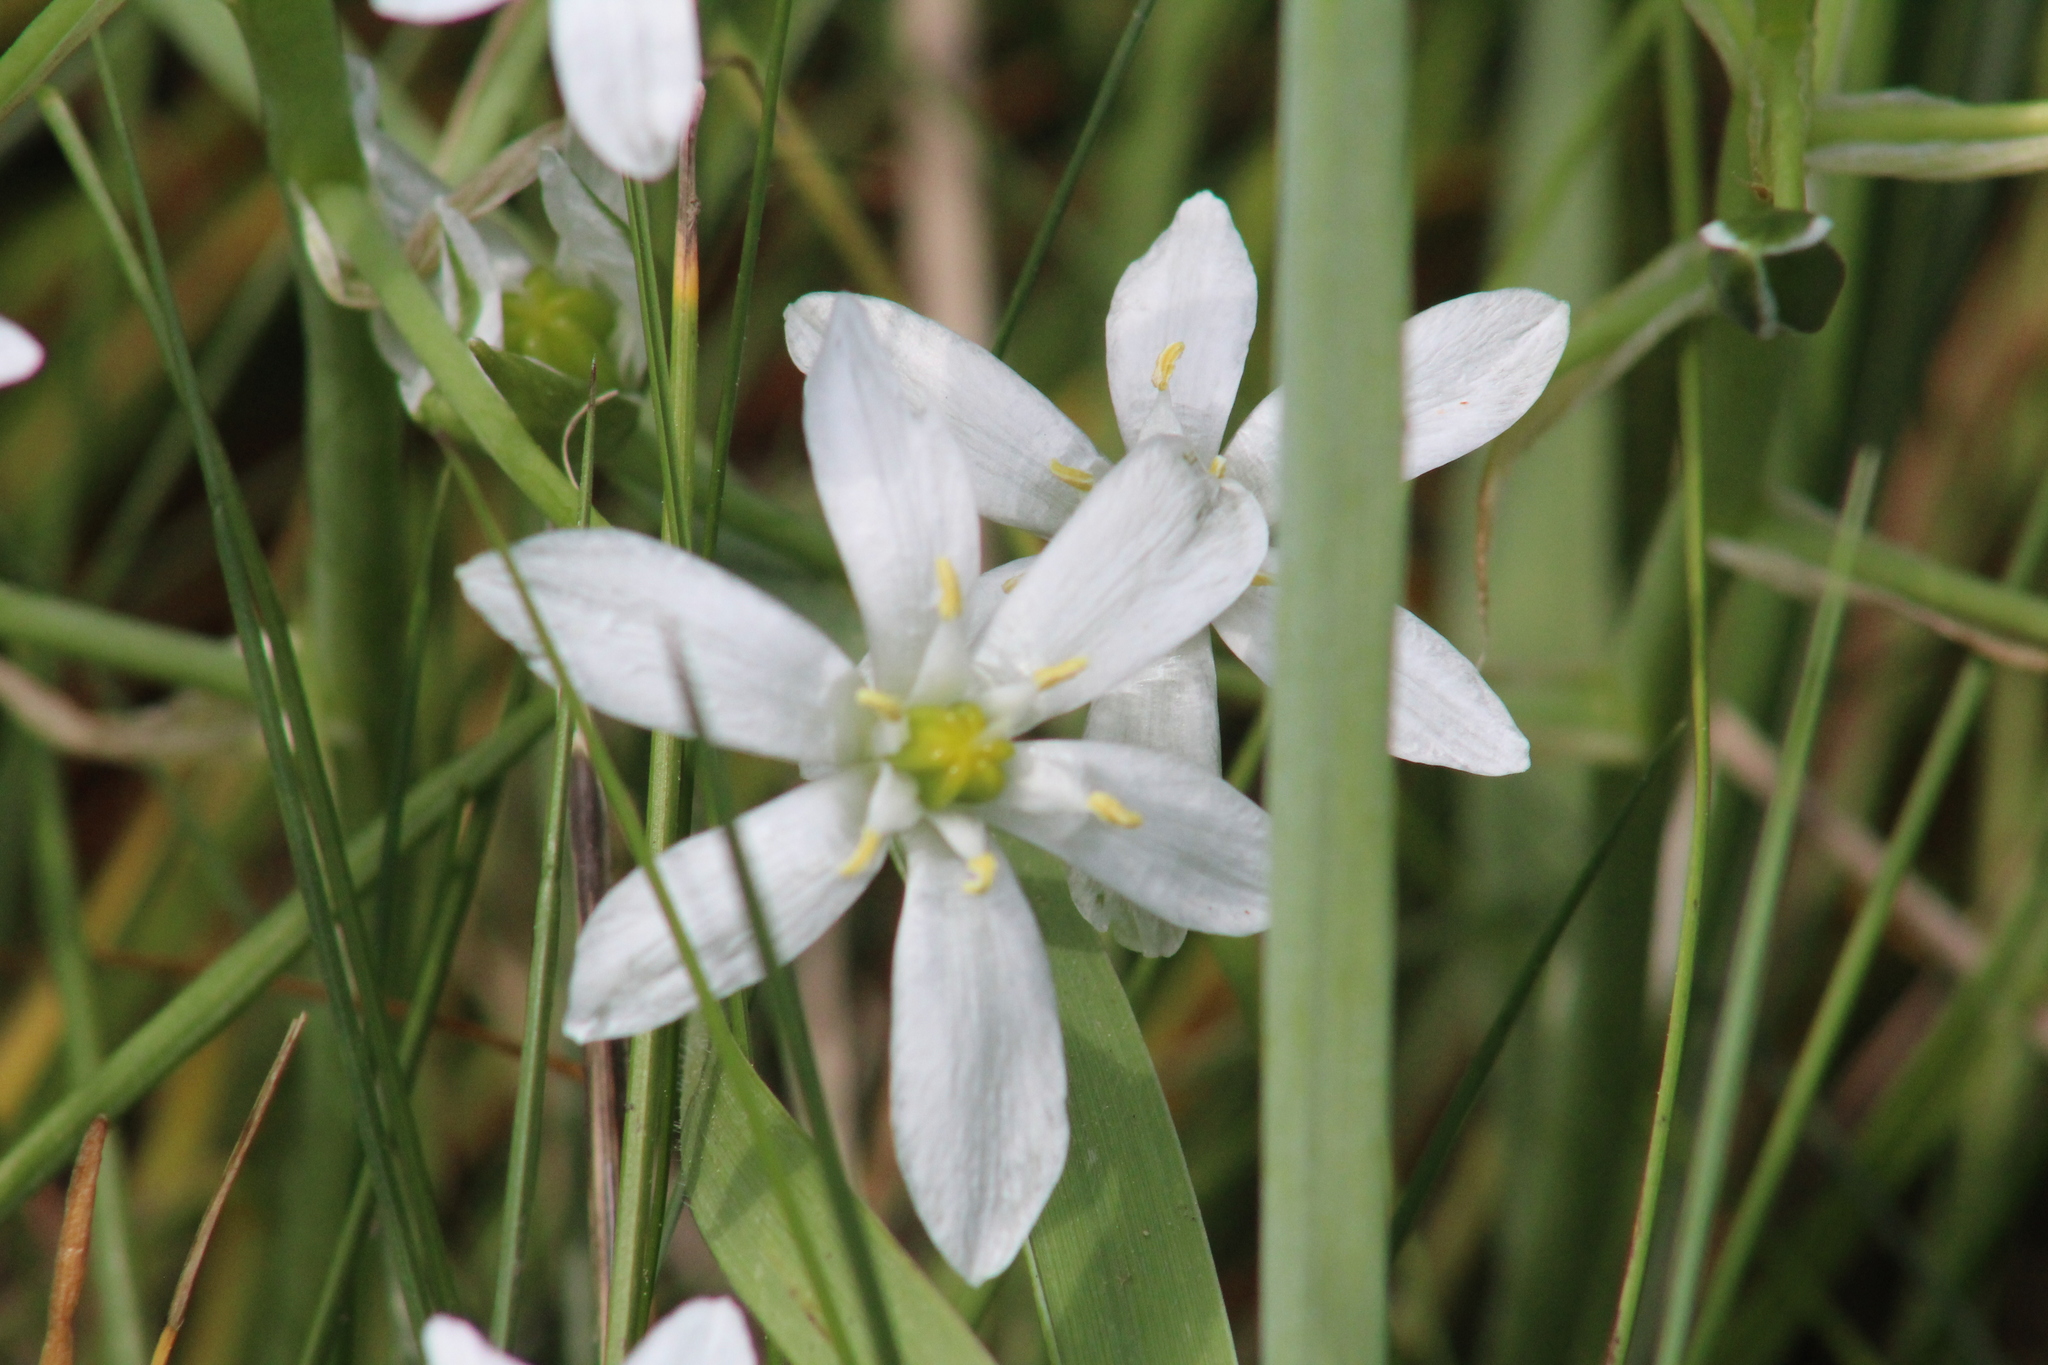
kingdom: Plantae
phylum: Tracheophyta
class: Liliopsida
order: Asparagales
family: Asparagaceae
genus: Ornithogalum
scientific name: Ornithogalum umbellatum
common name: Garden star-of-bethlehem
